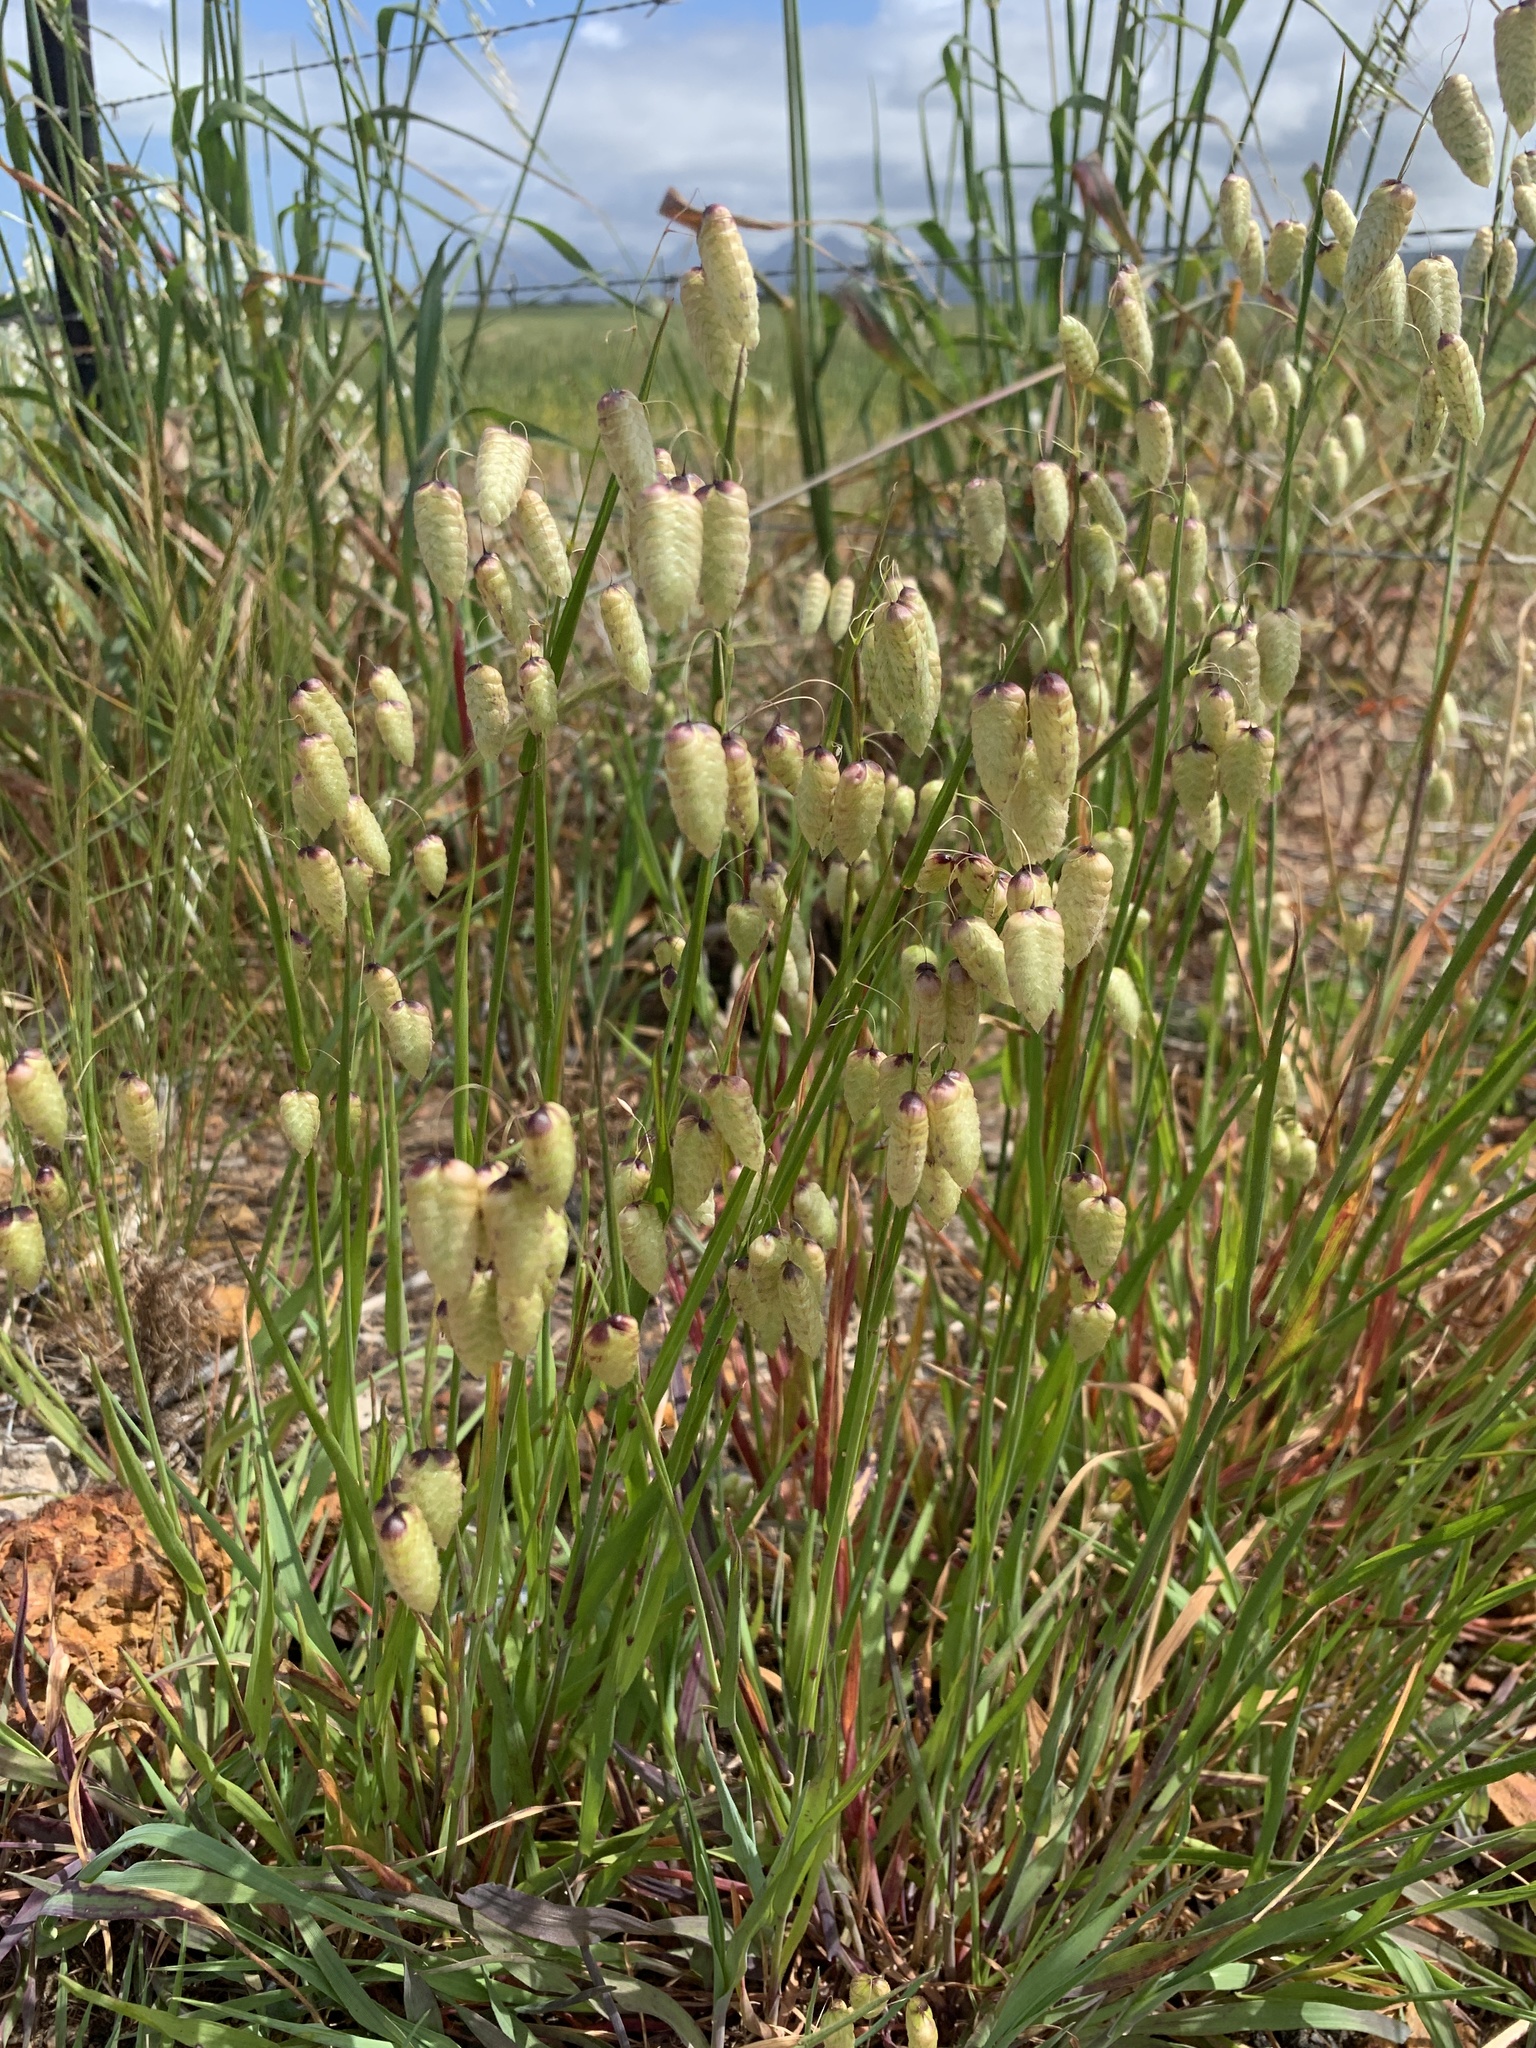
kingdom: Plantae
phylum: Tracheophyta
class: Liliopsida
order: Poales
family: Poaceae
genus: Briza
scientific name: Briza maxima
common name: Big quakinggrass
